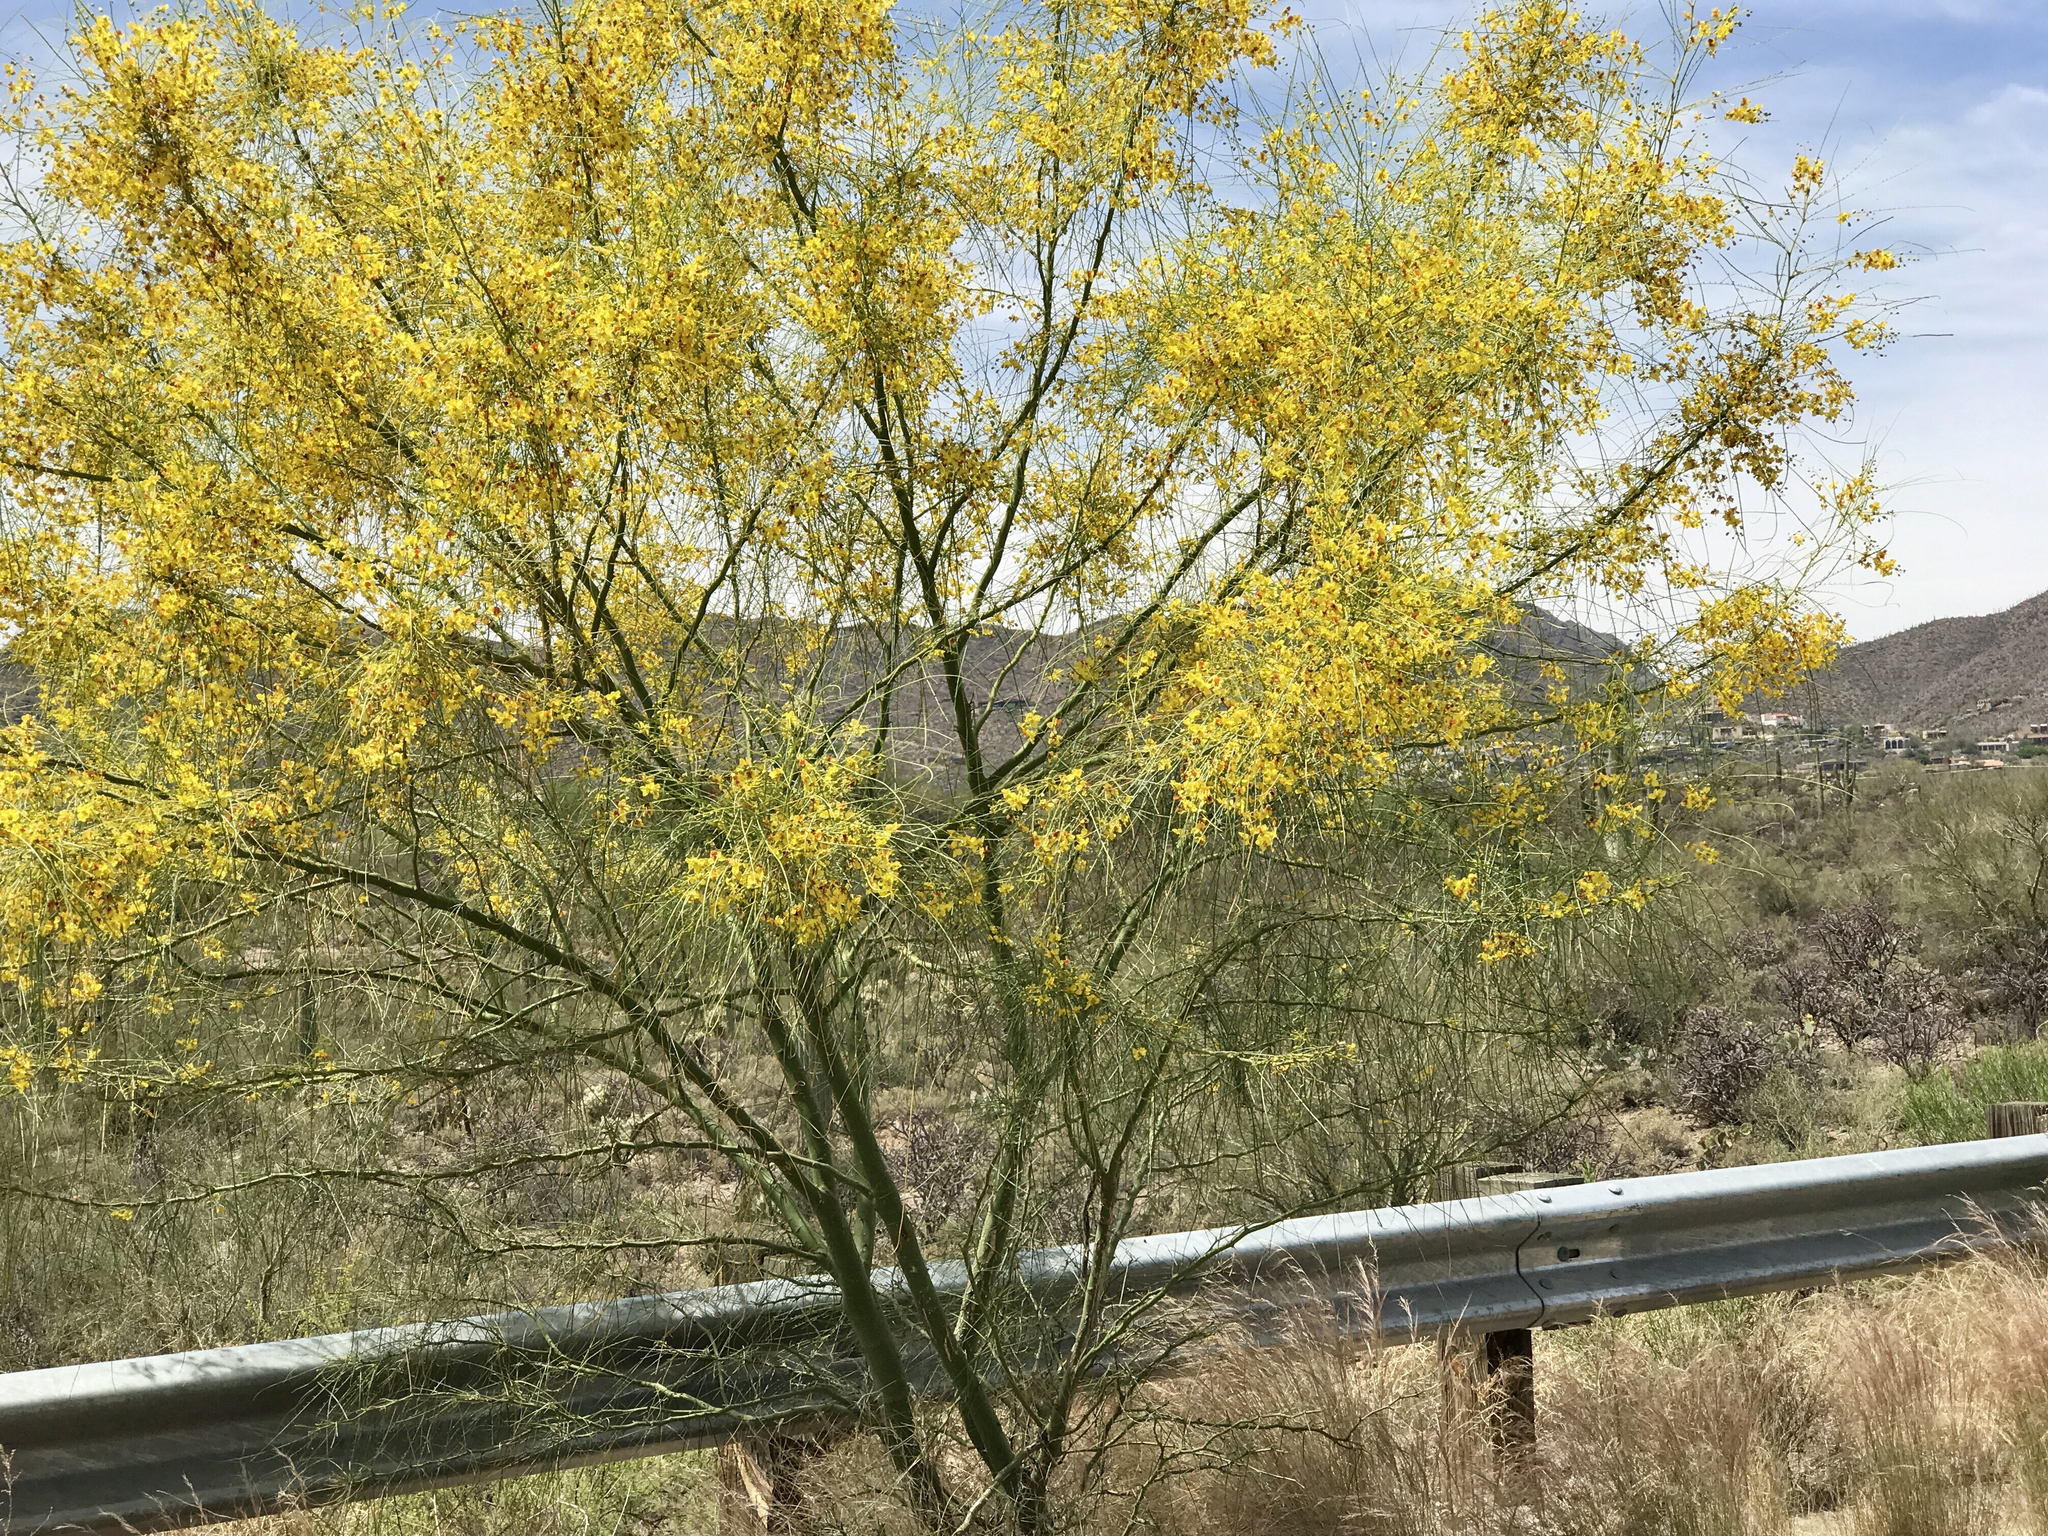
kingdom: Plantae
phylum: Tracheophyta
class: Magnoliopsida
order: Fabales
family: Fabaceae
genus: Parkinsonia
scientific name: Parkinsonia aculeata
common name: Jerusalem thorn
